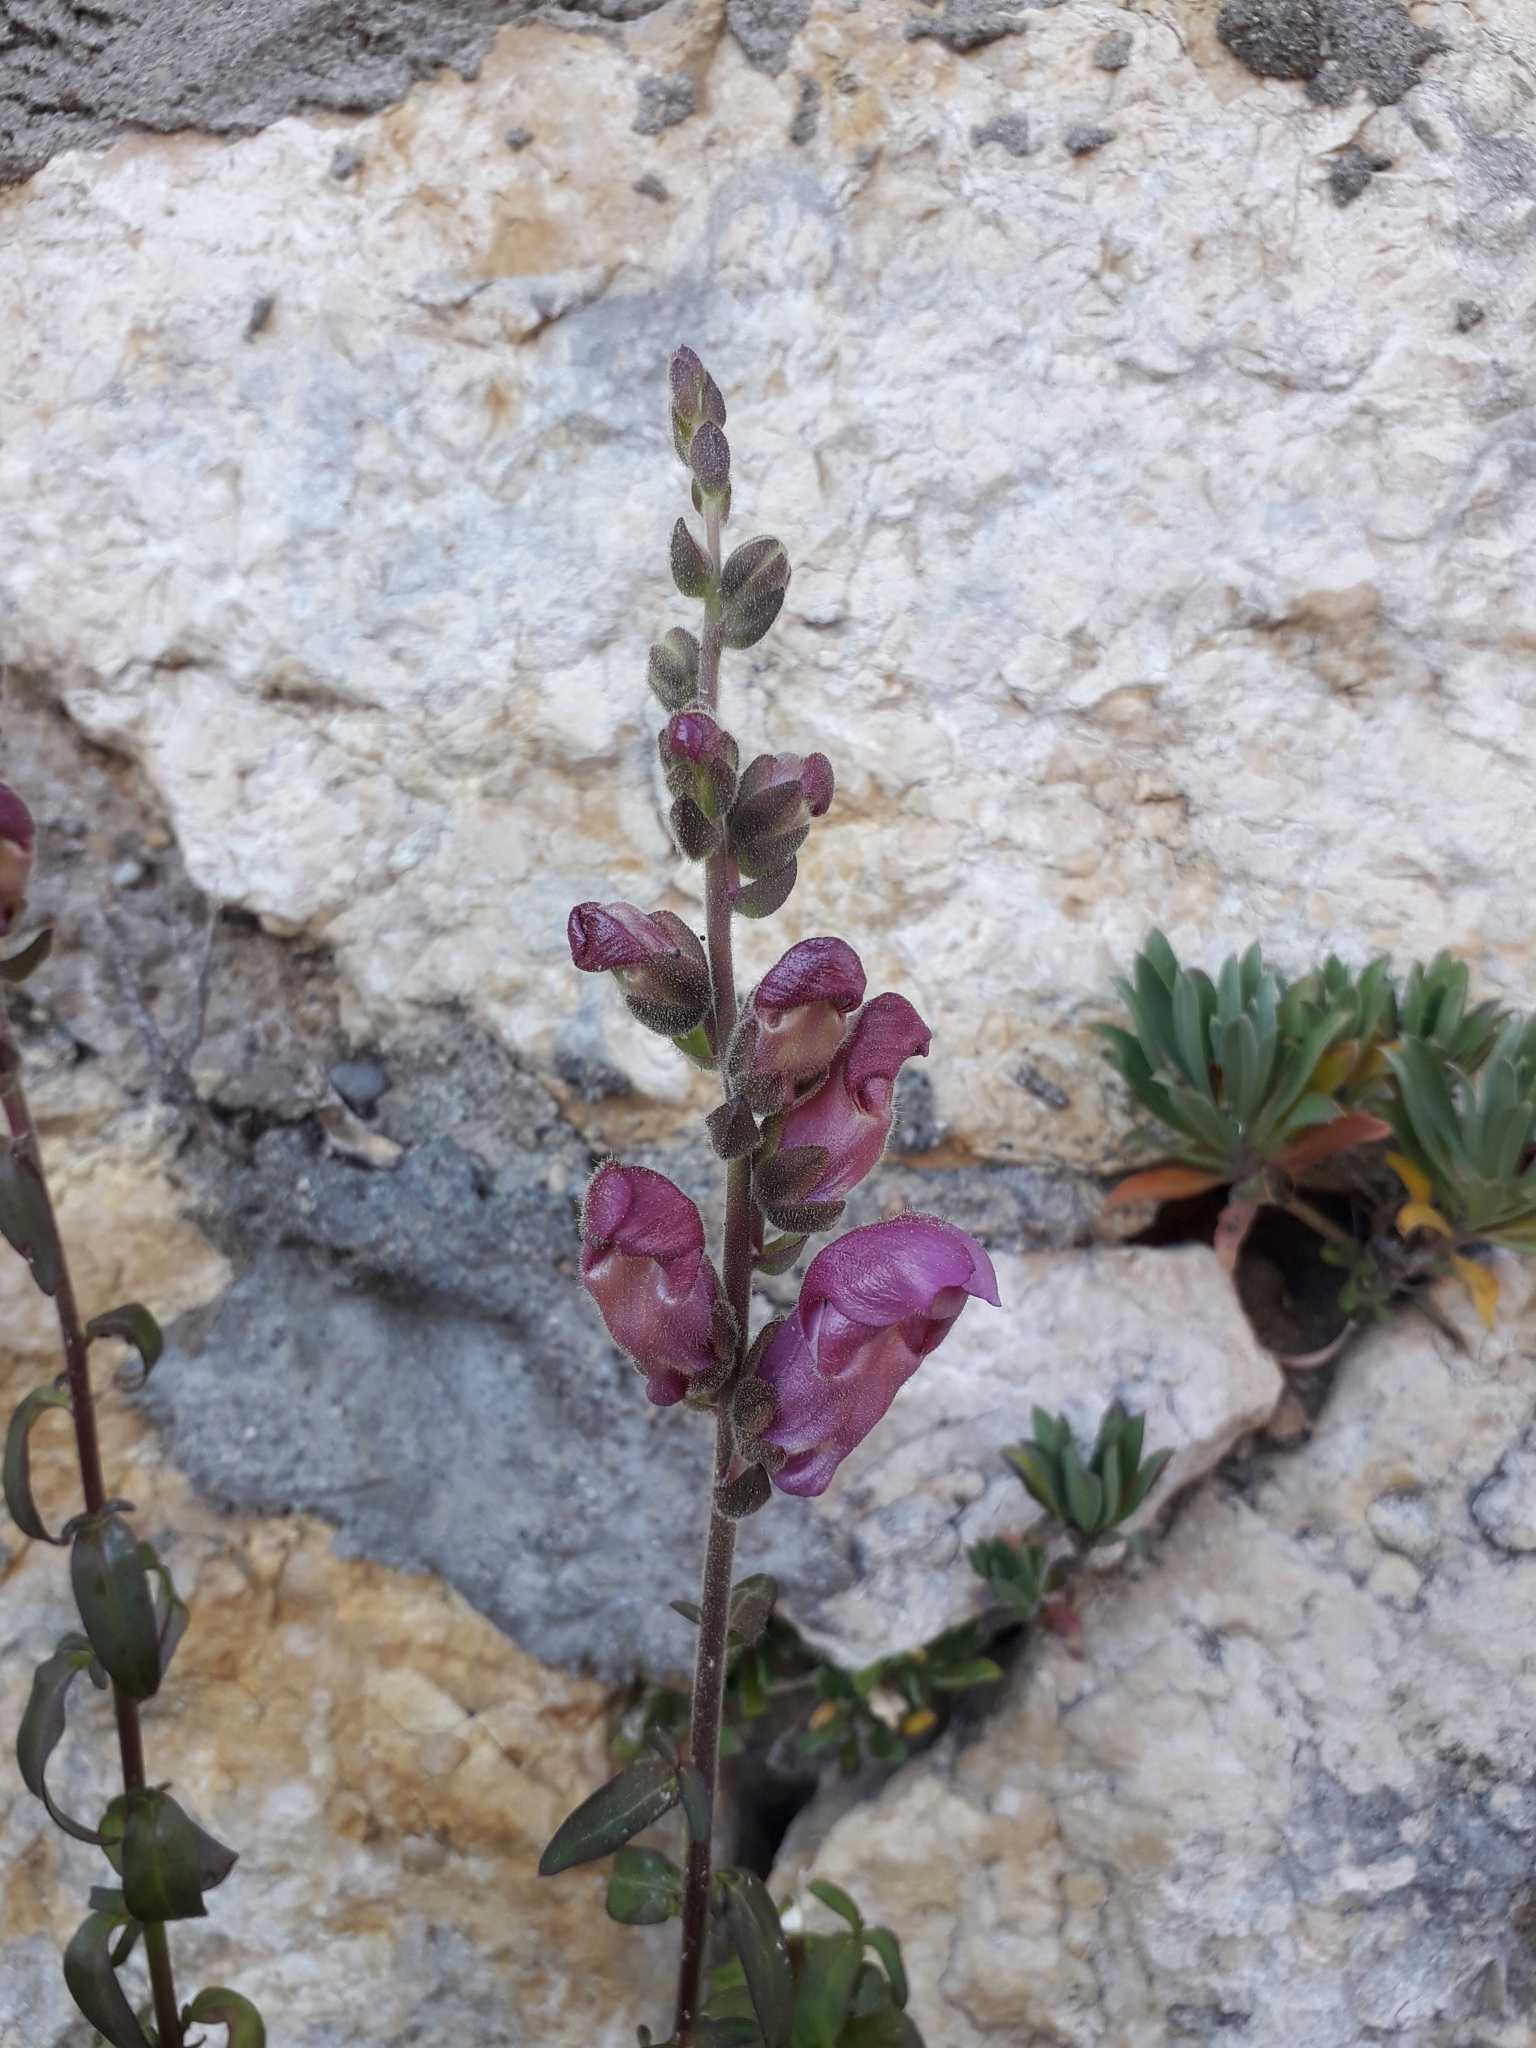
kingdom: Plantae
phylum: Tracheophyta
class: Magnoliopsida
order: Lamiales
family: Plantaginaceae
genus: Antirrhinum
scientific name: Antirrhinum majus
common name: Snapdragon
